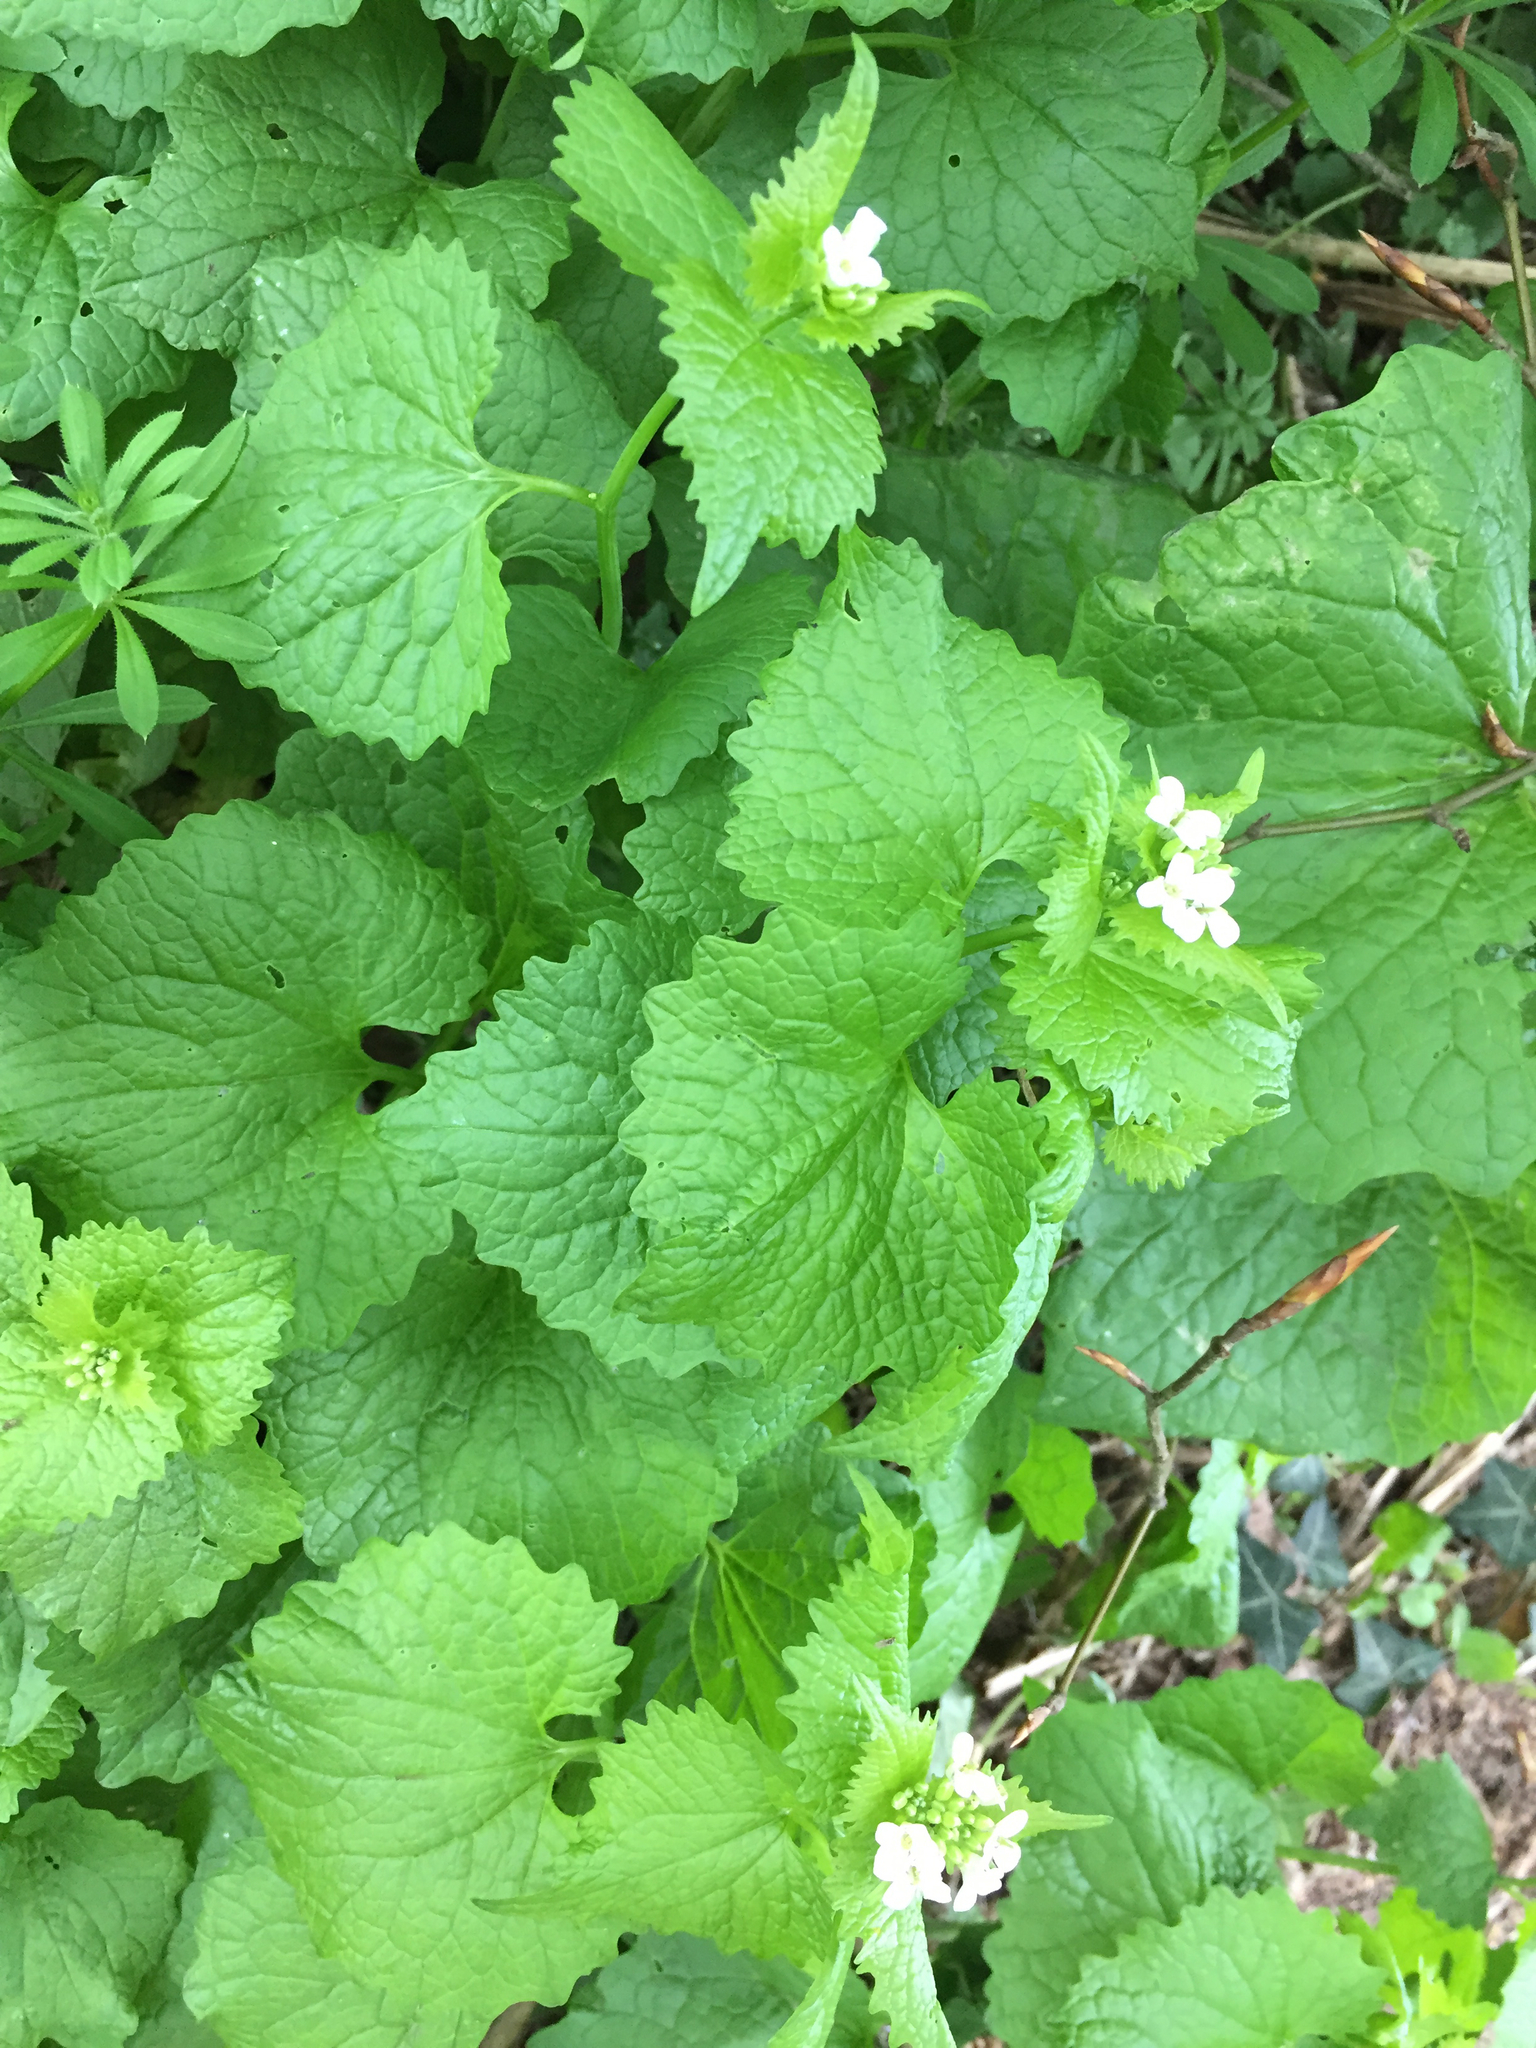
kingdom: Plantae
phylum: Tracheophyta
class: Magnoliopsida
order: Brassicales
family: Brassicaceae
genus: Alliaria
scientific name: Alliaria petiolata
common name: Garlic mustard
